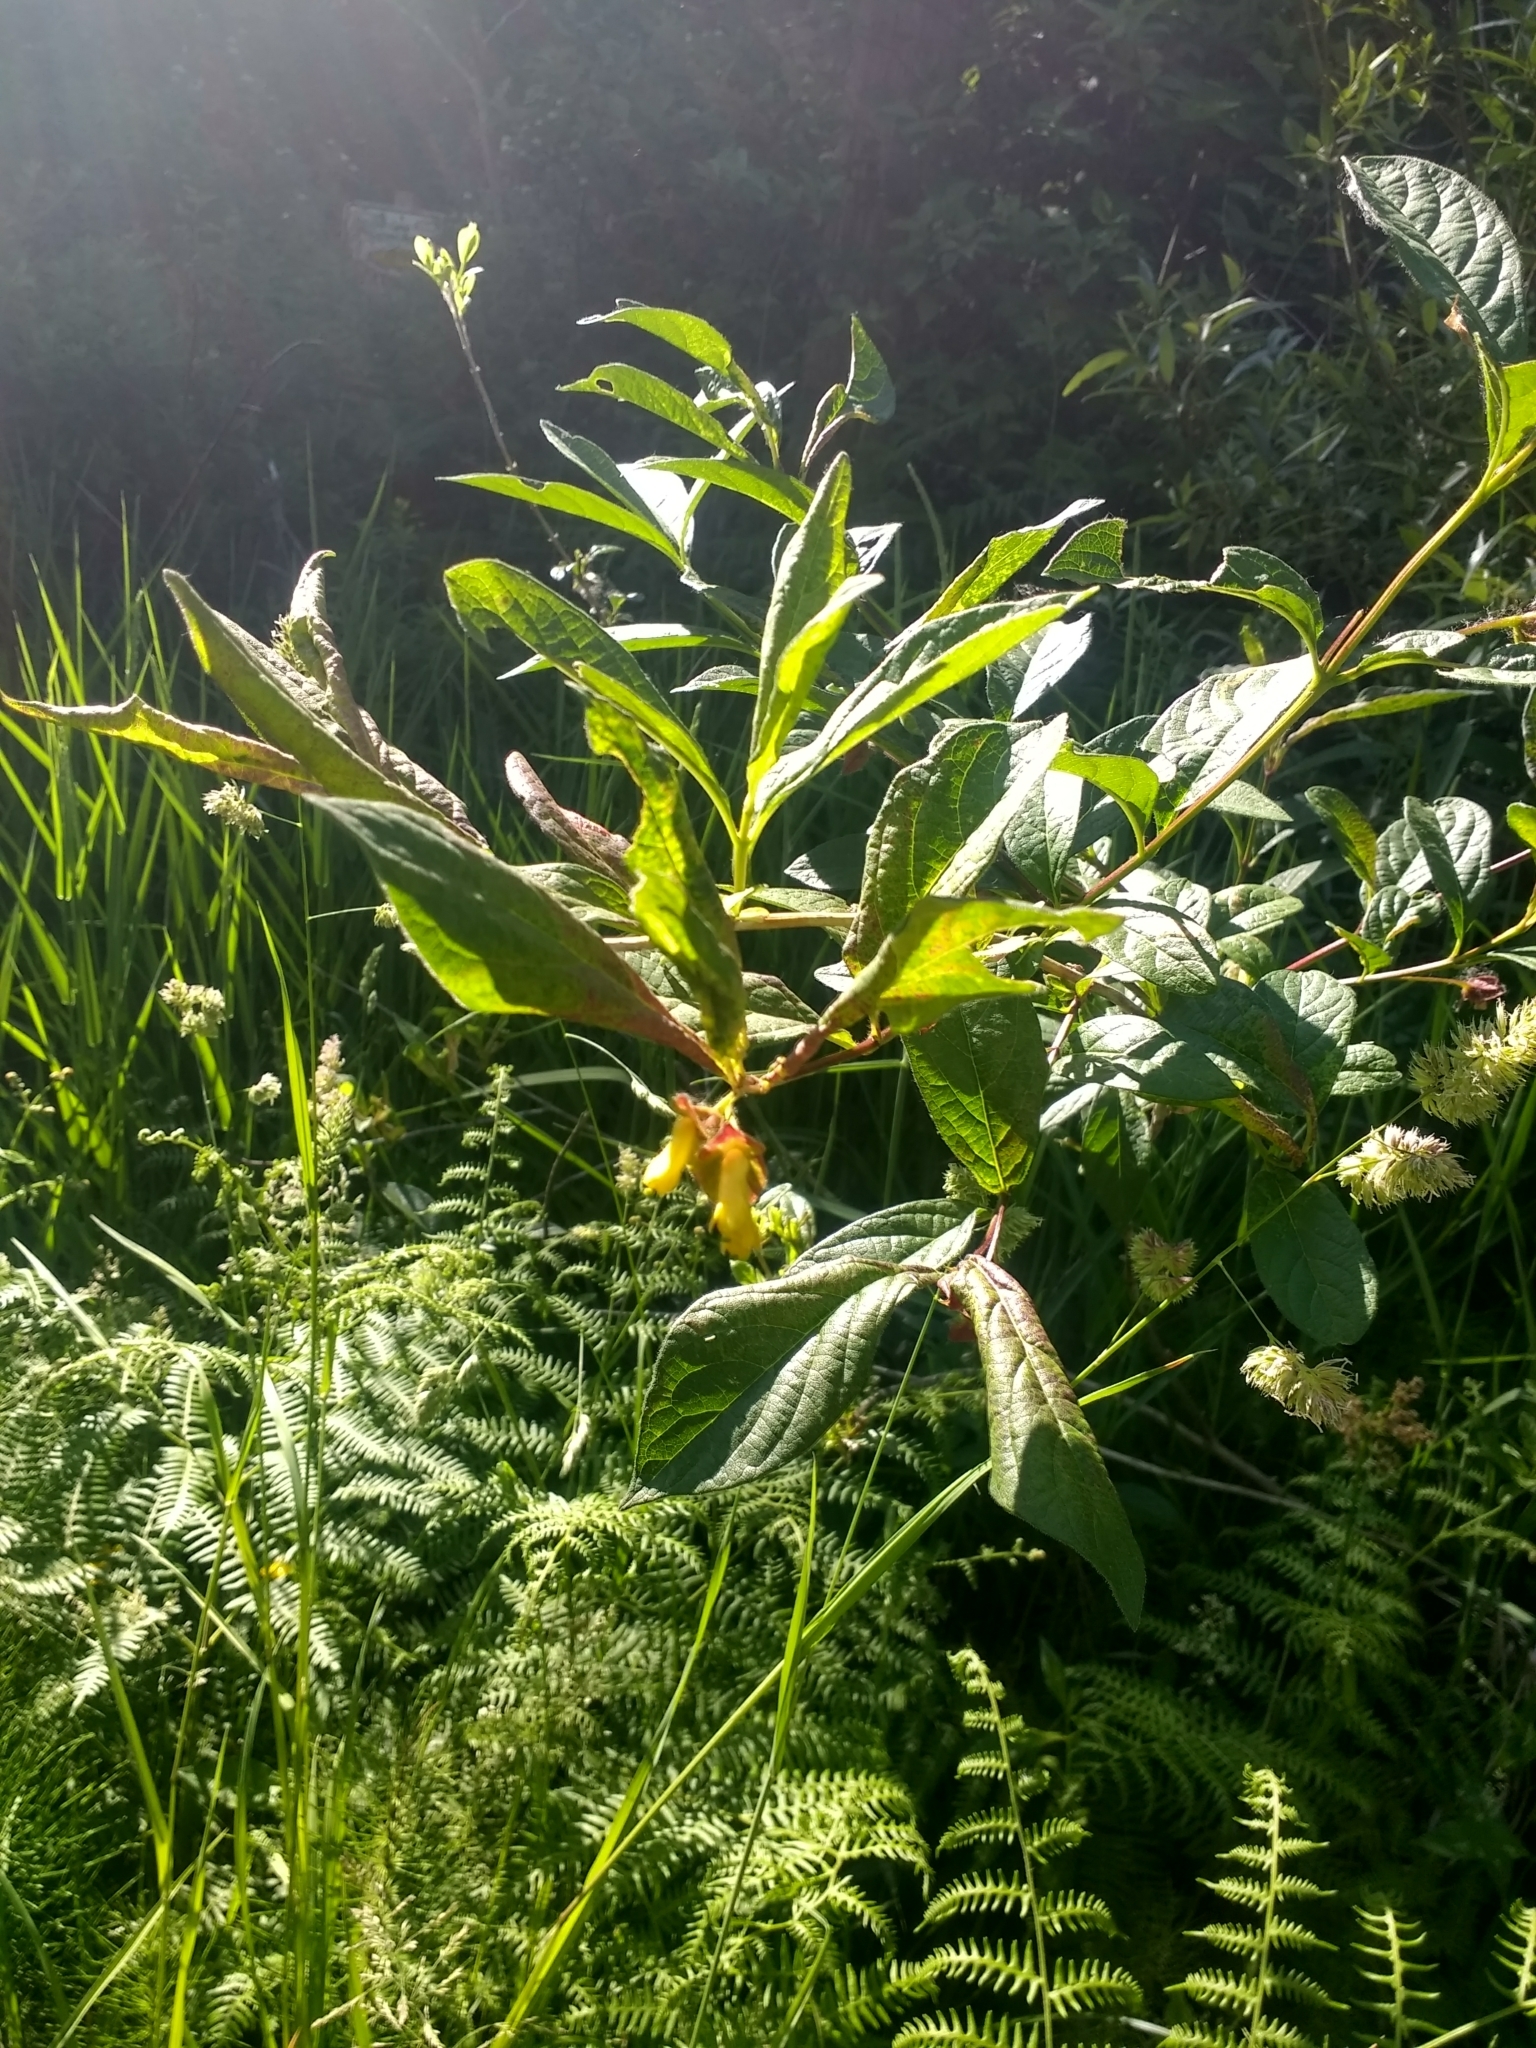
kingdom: Plantae
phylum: Tracheophyta
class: Magnoliopsida
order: Dipsacales
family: Caprifoliaceae
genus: Lonicera
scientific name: Lonicera involucrata
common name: Californian honeysuckle
